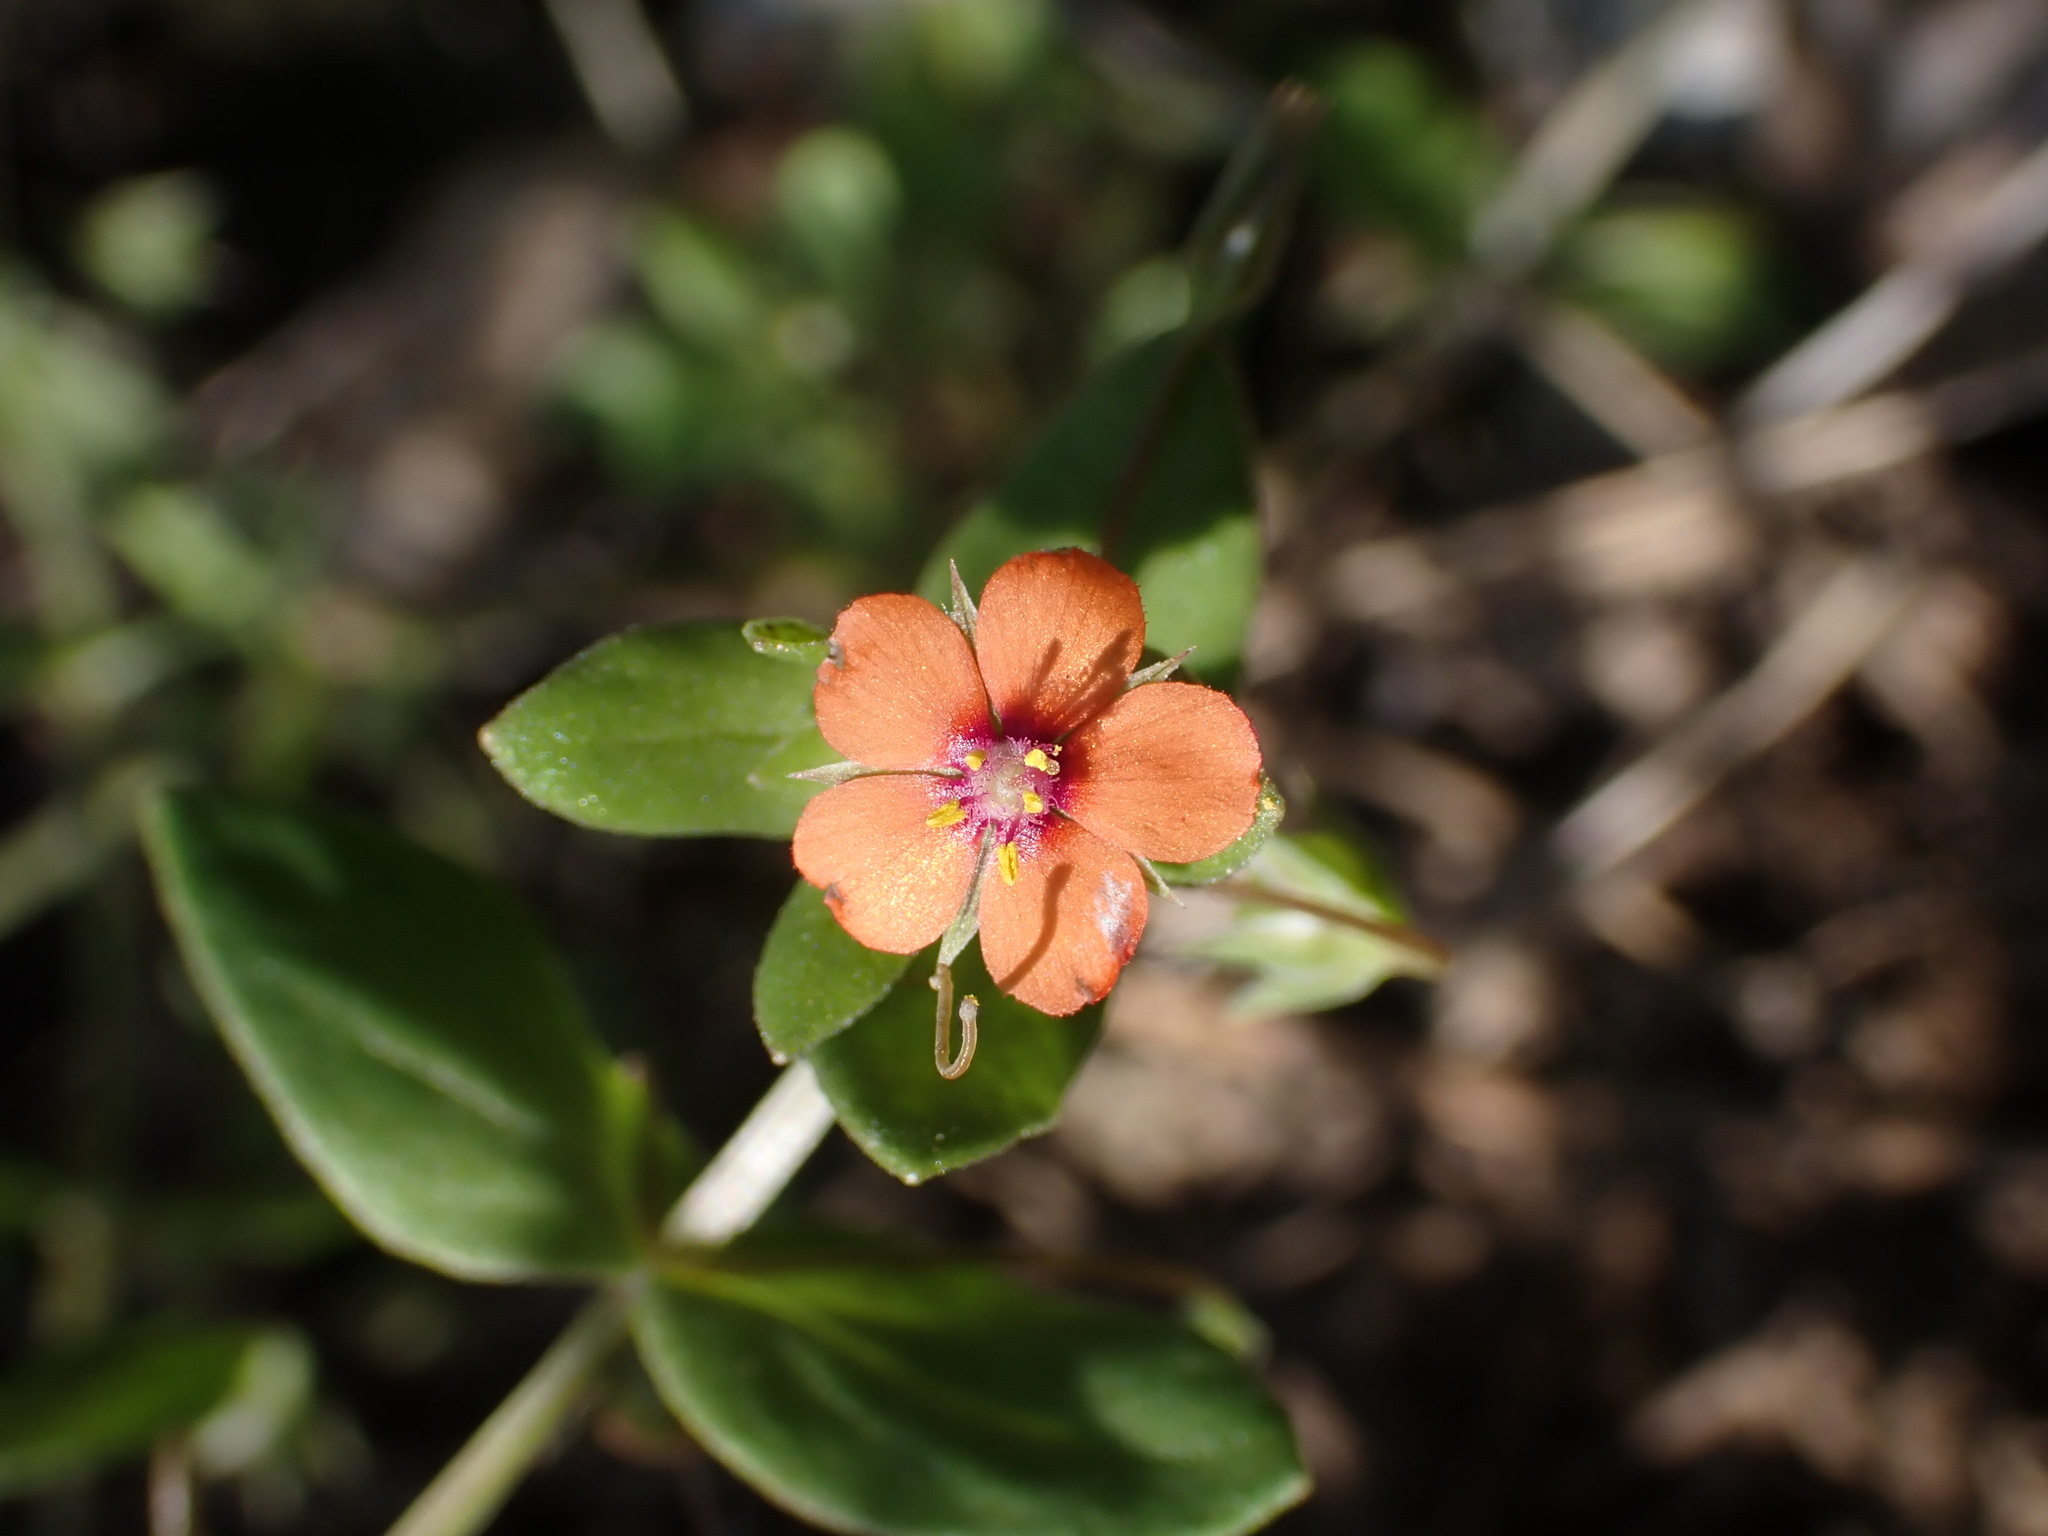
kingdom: Plantae
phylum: Tracheophyta
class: Magnoliopsida
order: Ericales
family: Primulaceae
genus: Lysimachia
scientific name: Lysimachia arvensis
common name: Scarlet pimpernel
